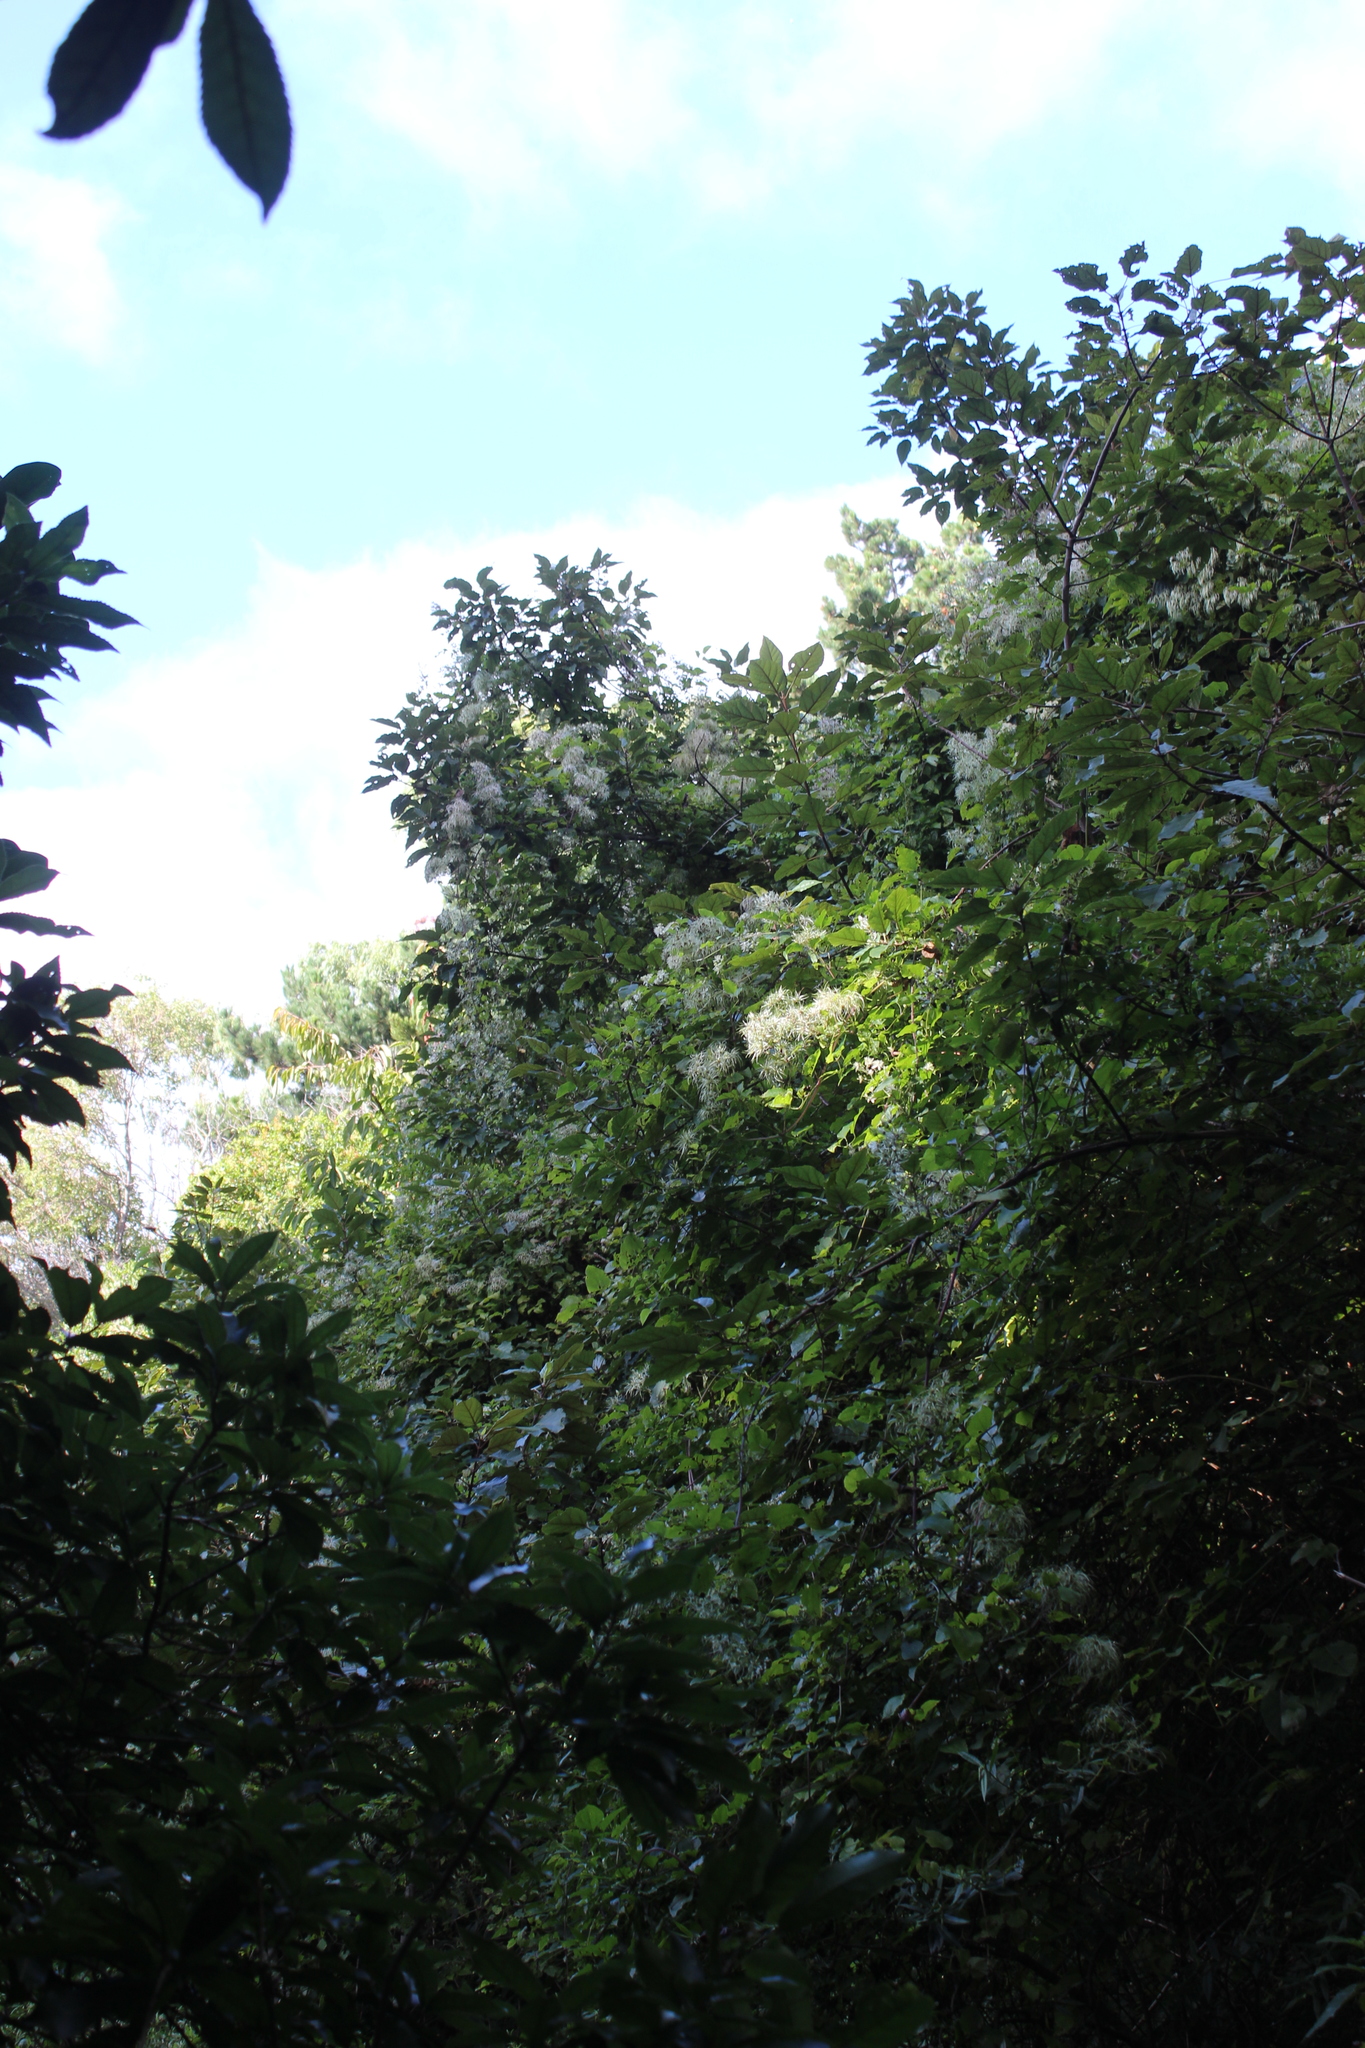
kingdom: Plantae
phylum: Tracheophyta
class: Magnoliopsida
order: Ranunculales
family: Ranunculaceae
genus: Clematis
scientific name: Clematis vitalba
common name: Evergreen clematis
